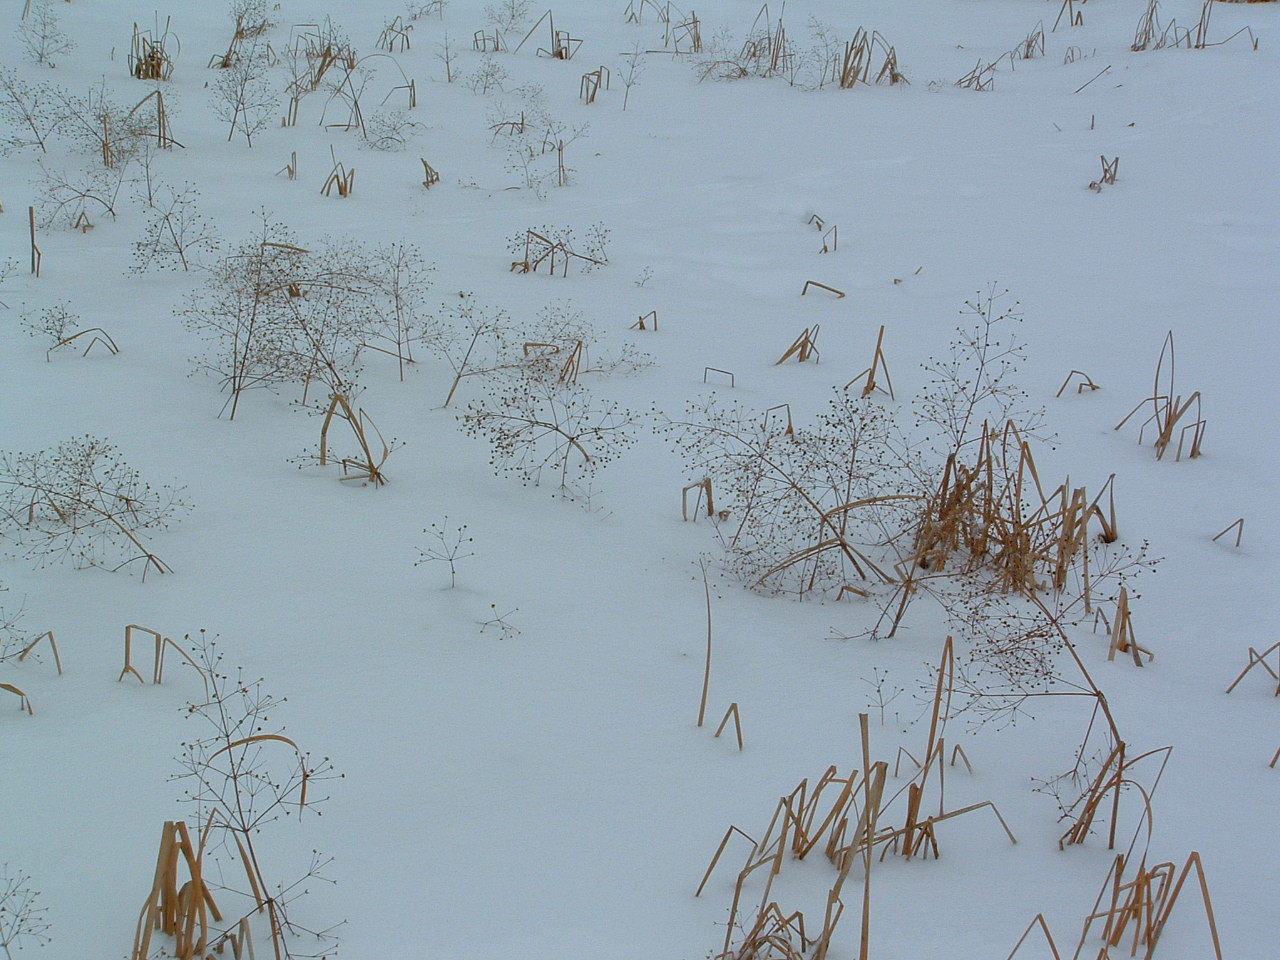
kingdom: Plantae
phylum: Tracheophyta
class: Liliopsida
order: Alismatales
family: Alismataceae
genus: Alisma
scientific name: Alisma triviale
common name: Northern water-plantain
